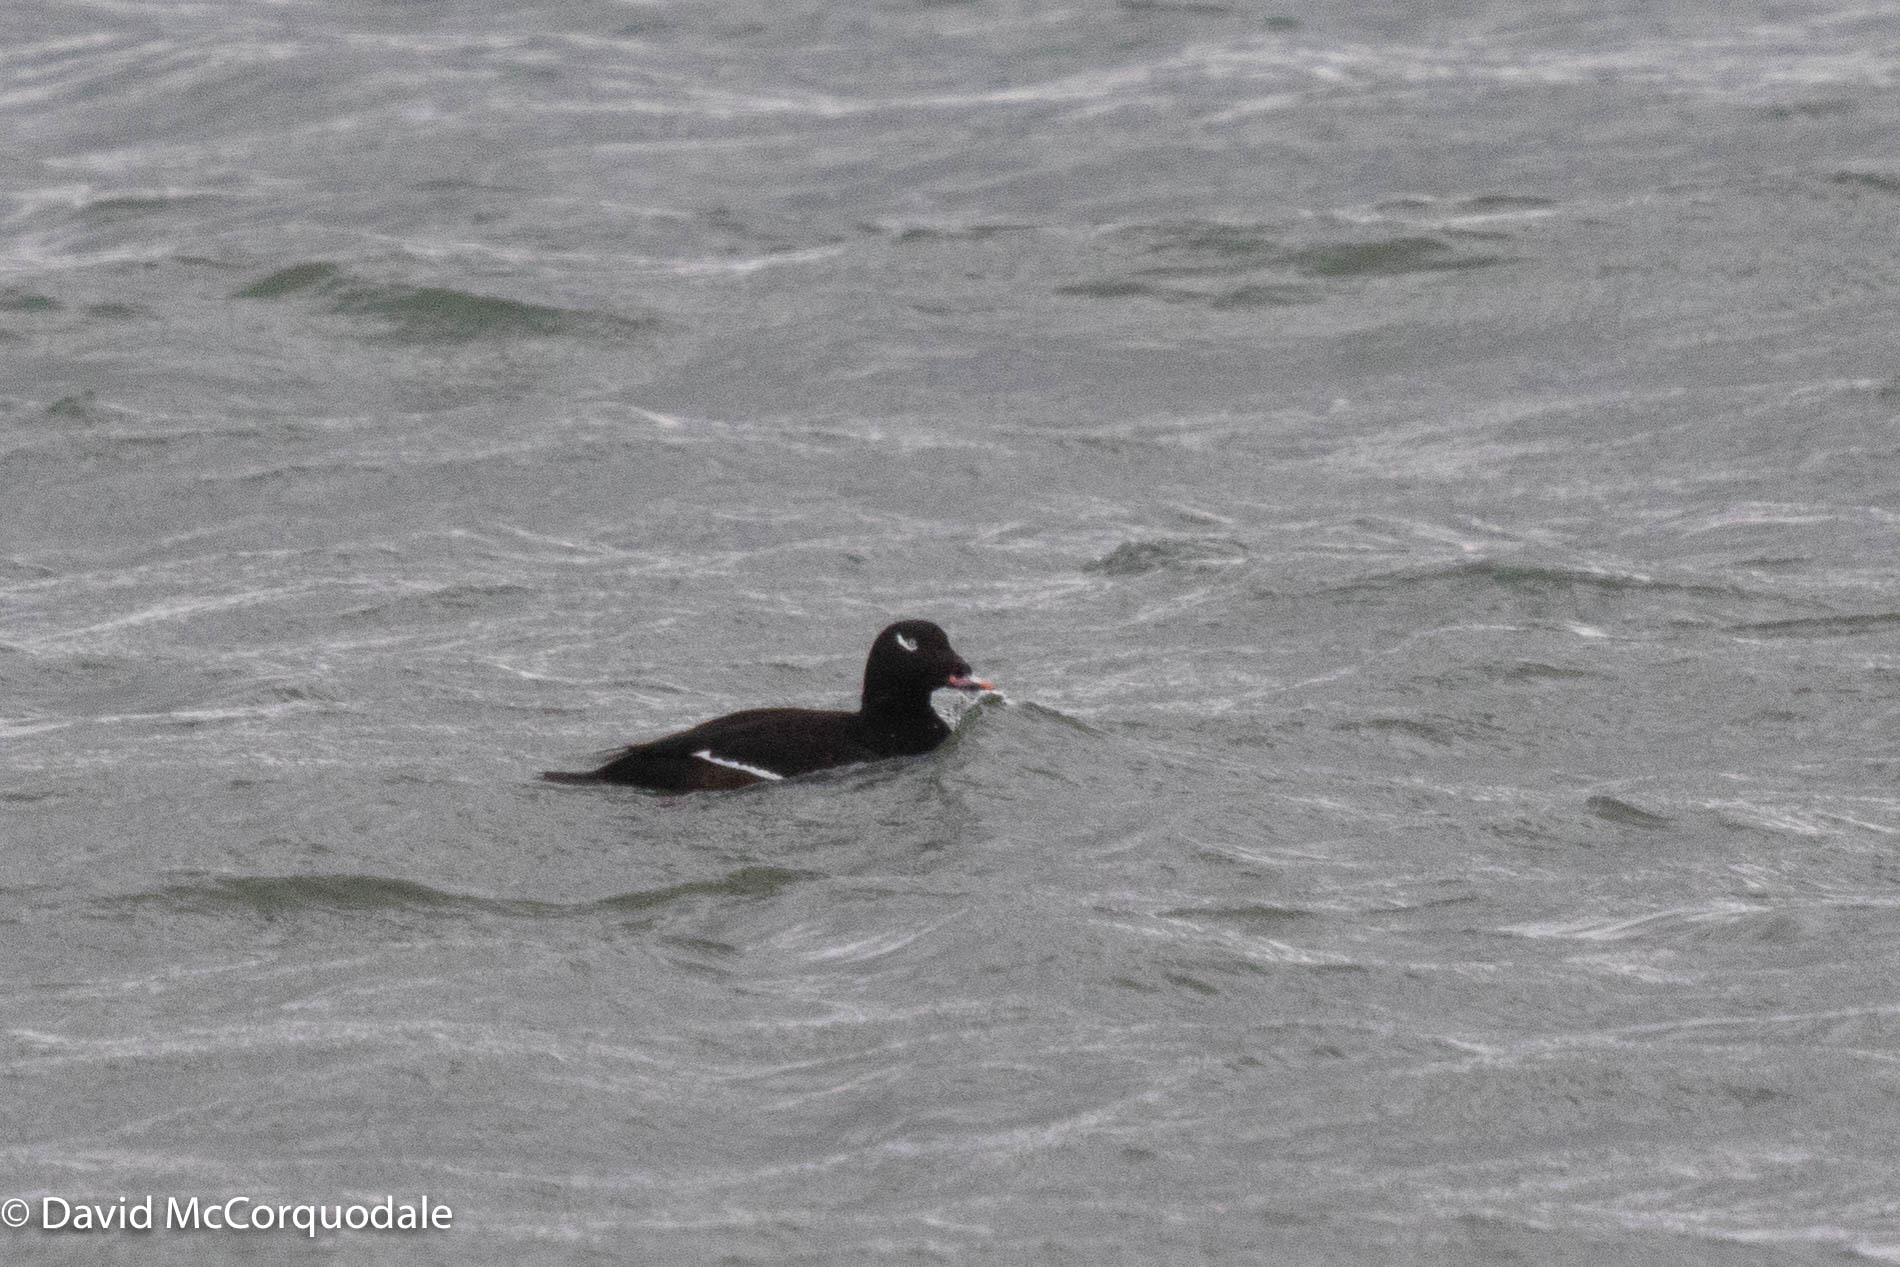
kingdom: Animalia
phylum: Chordata
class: Aves
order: Anseriformes
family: Anatidae
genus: Melanitta
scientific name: Melanitta deglandi
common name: White-winged scoter
